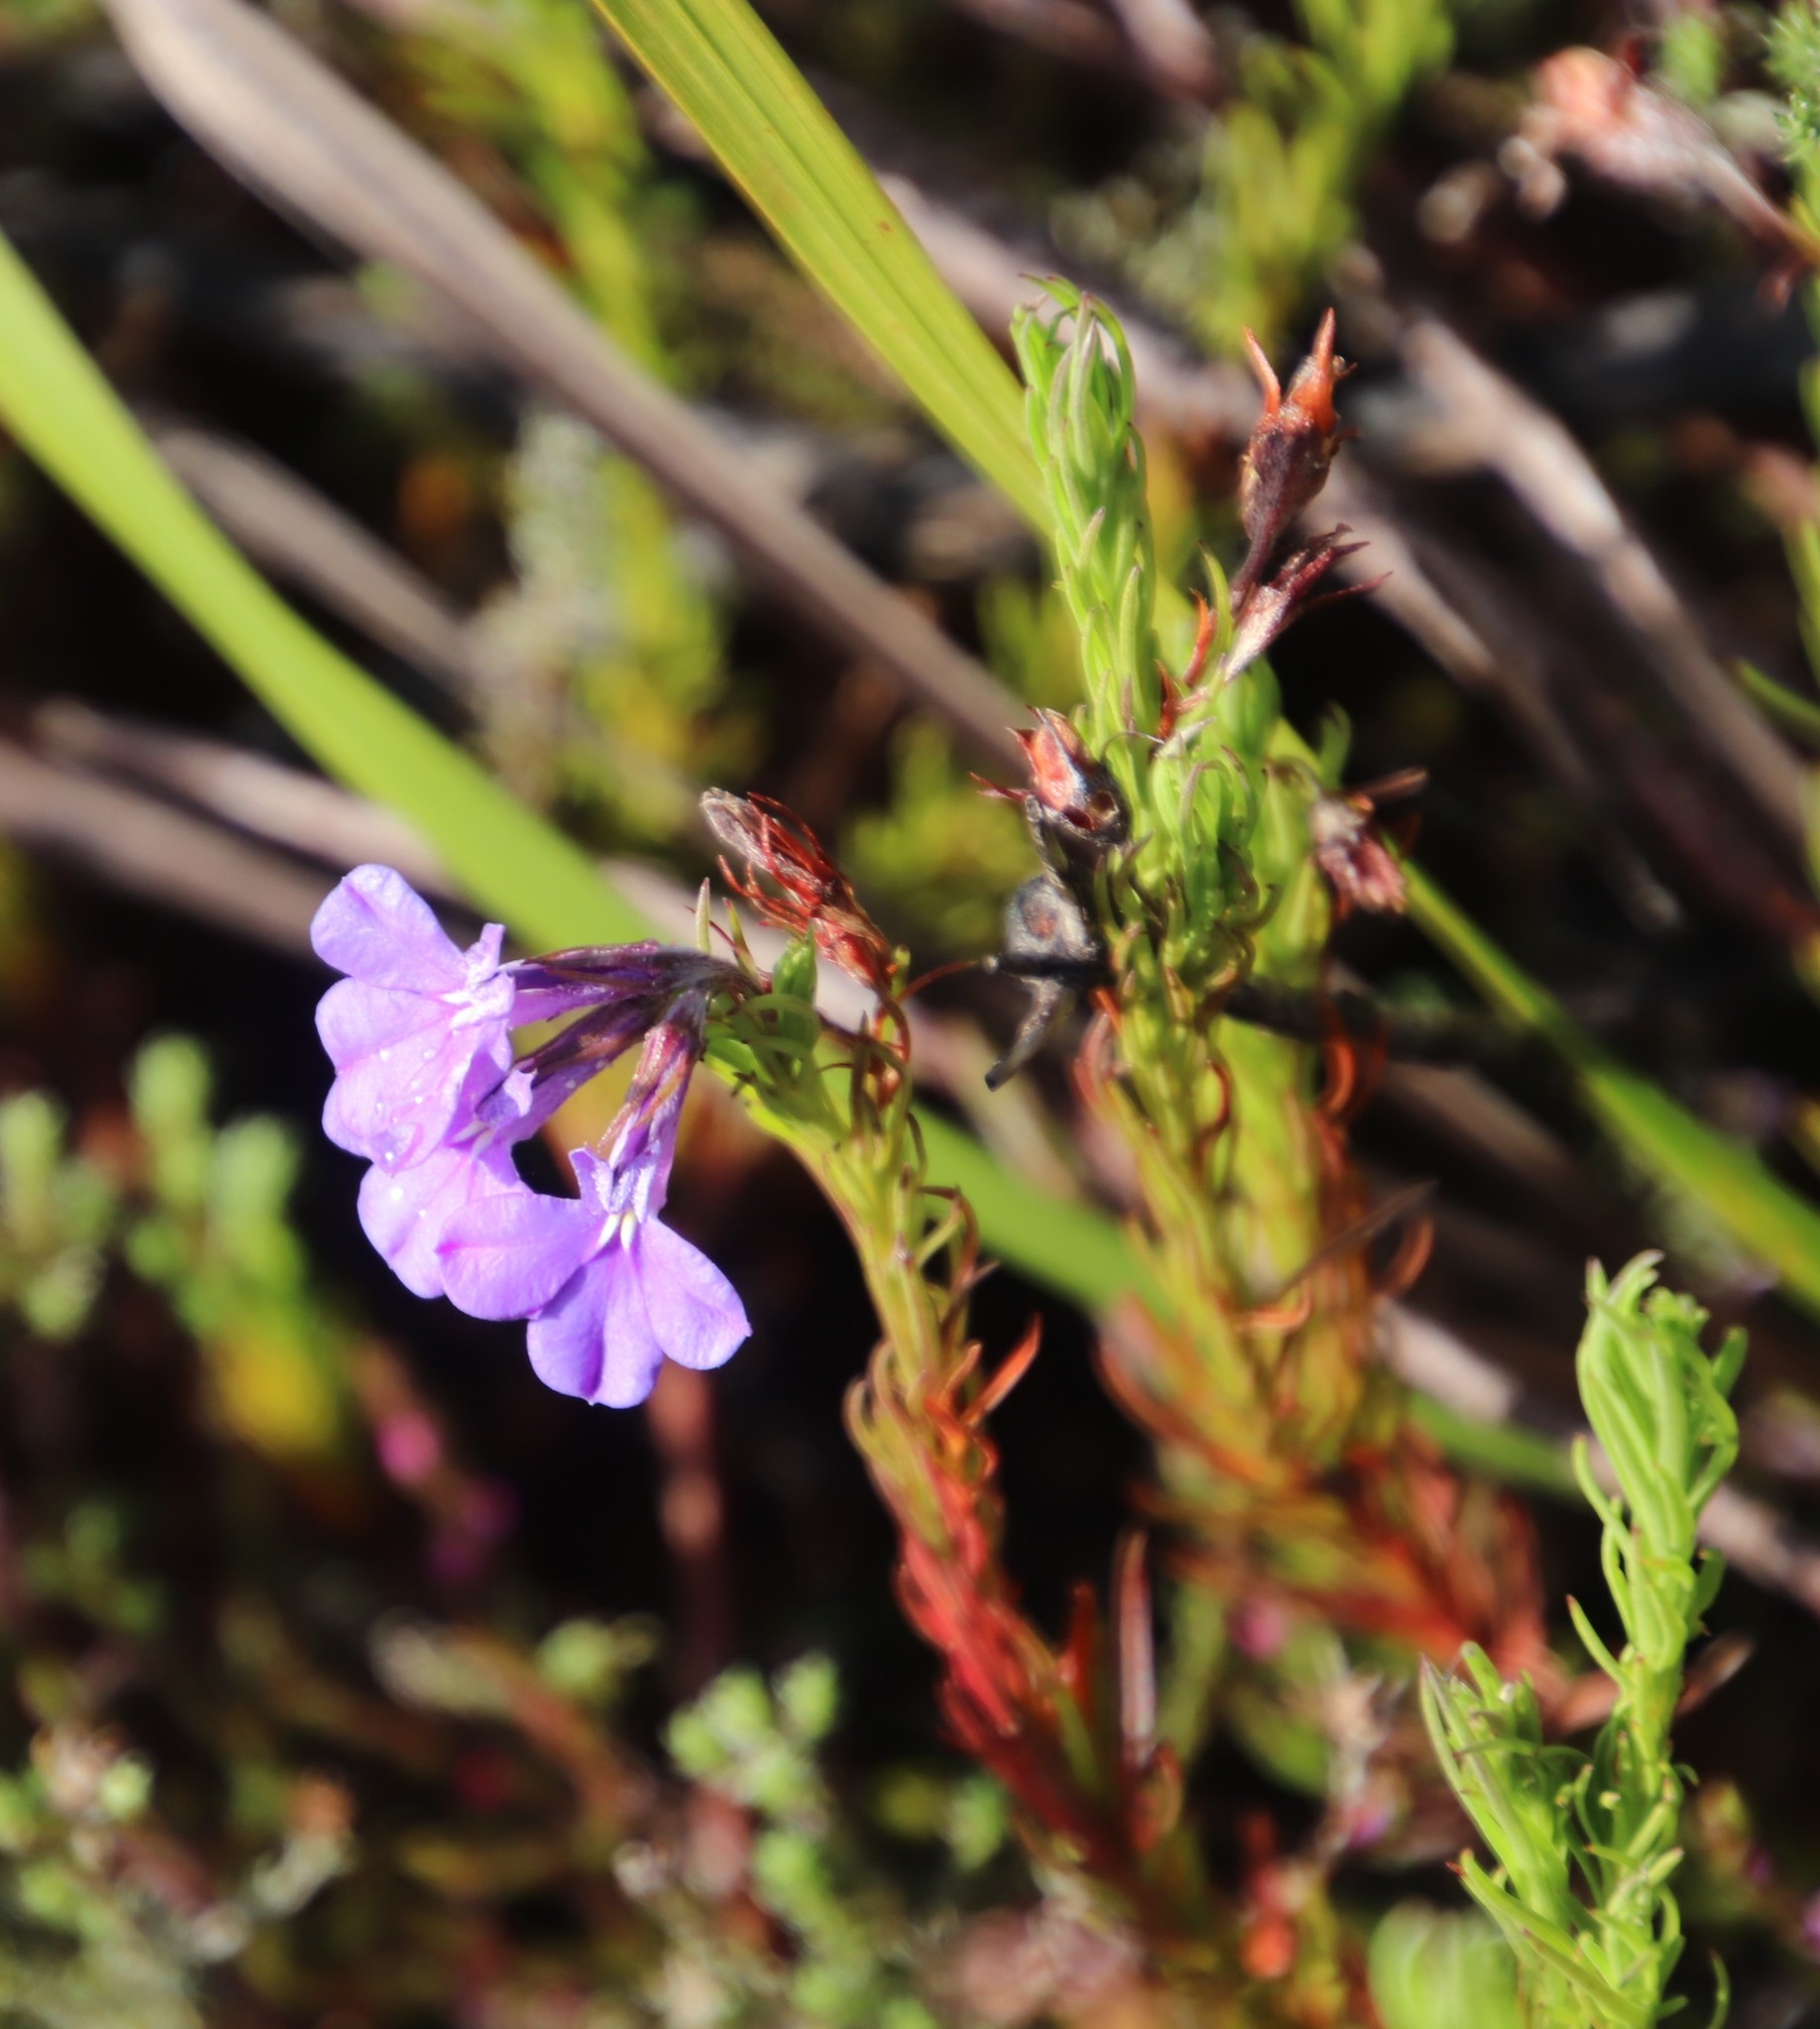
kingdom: Plantae
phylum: Tracheophyta
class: Magnoliopsida
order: Asterales
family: Campanulaceae
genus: Lobelia
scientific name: Lobelia pinifolia
